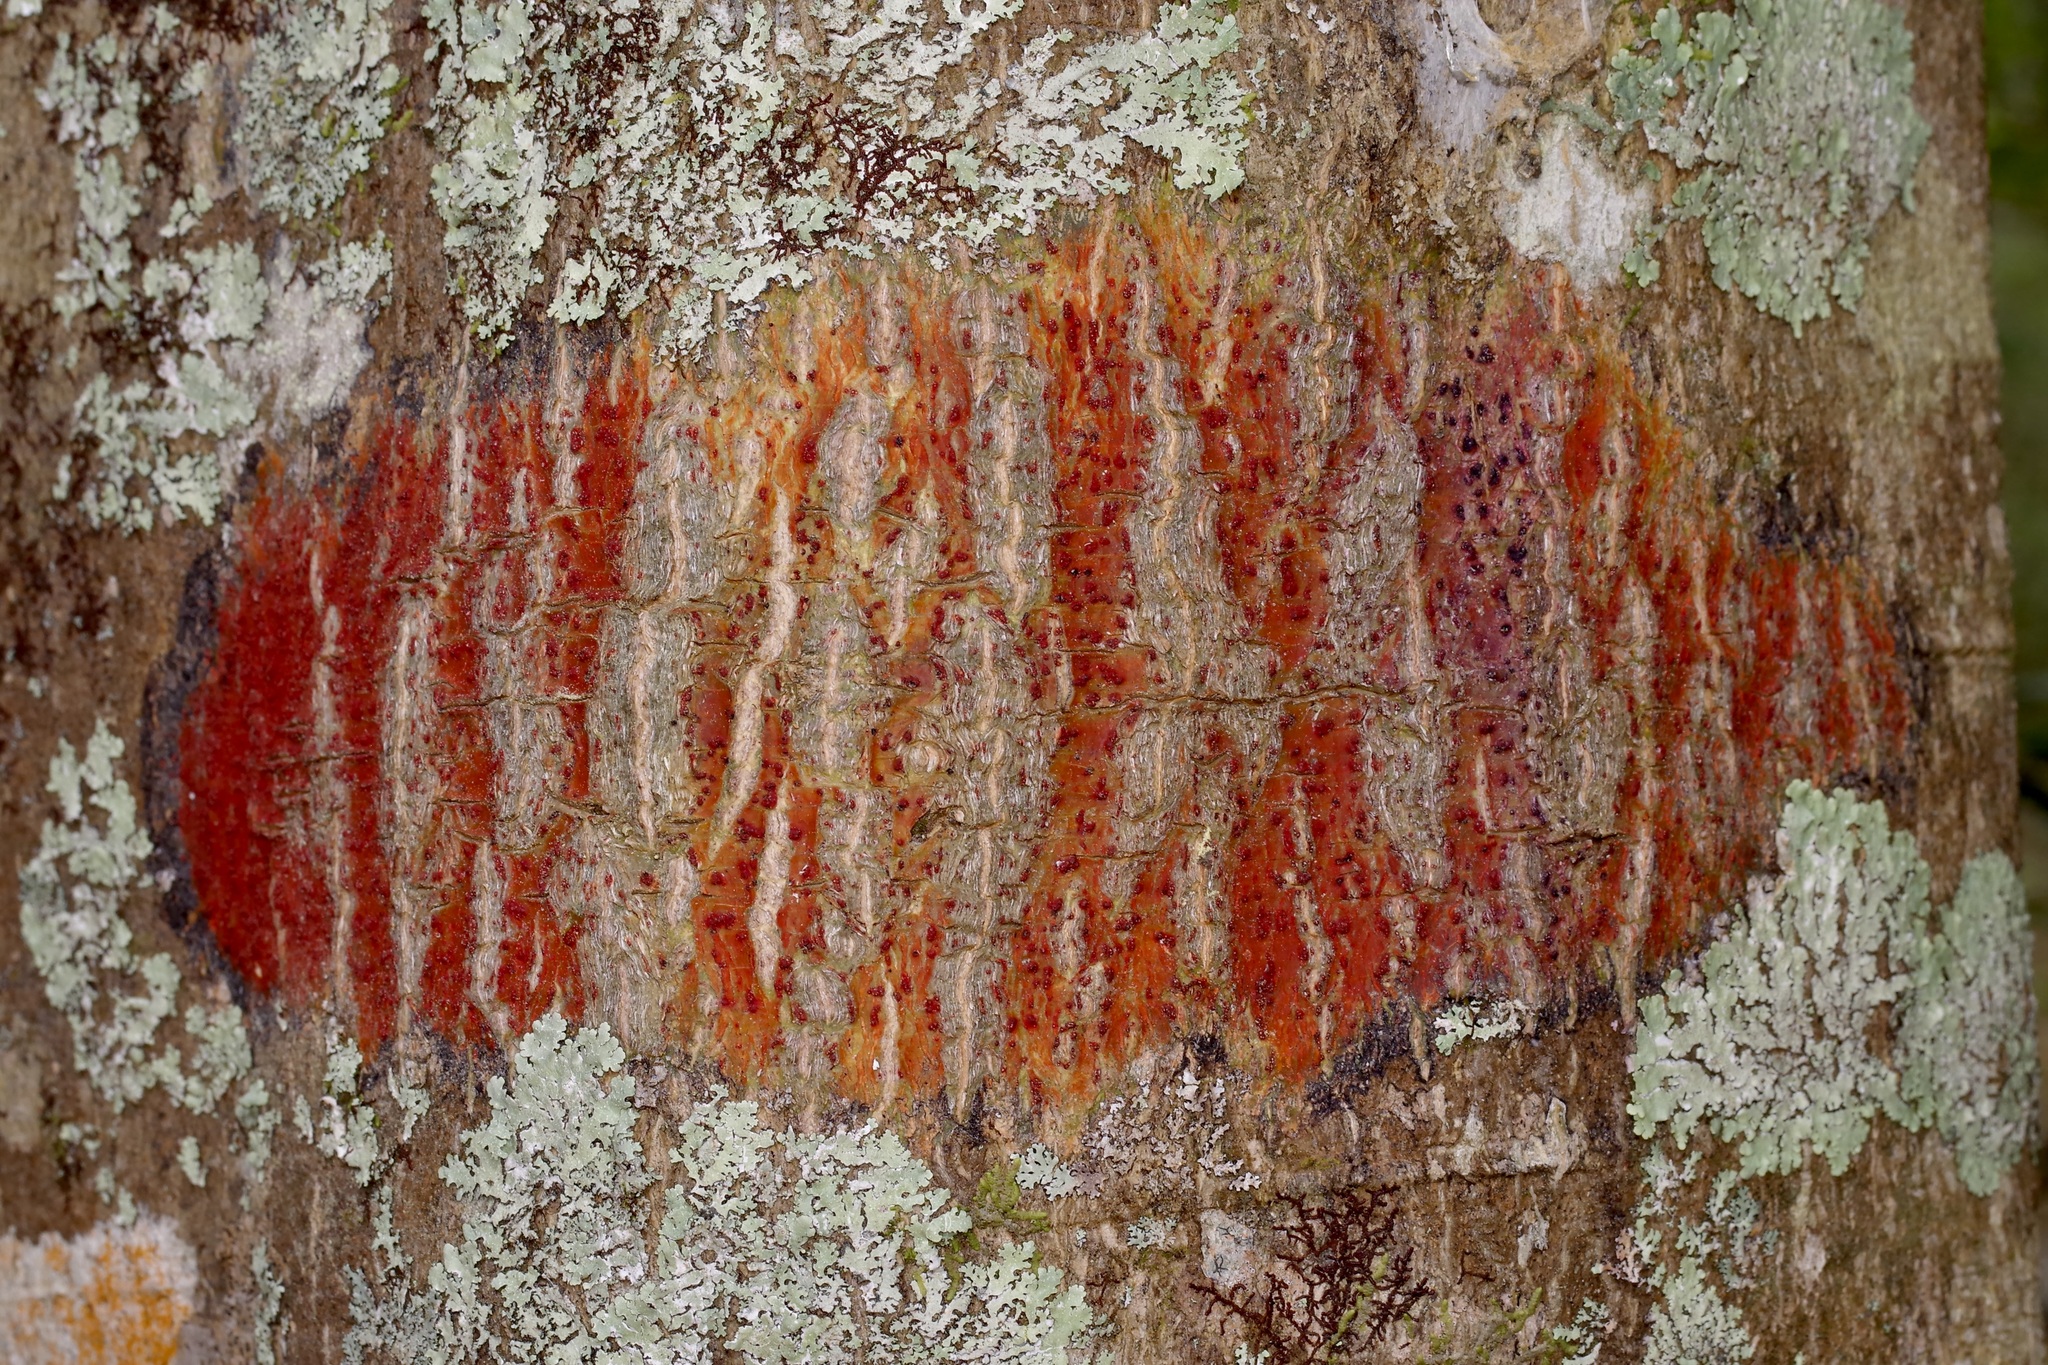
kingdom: Fungi
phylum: Ascomycota
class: Eurotiomycetes
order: Pyrenulales
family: Pyrenulaceae
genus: Pyrenula
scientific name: Pyrenula cruenta
